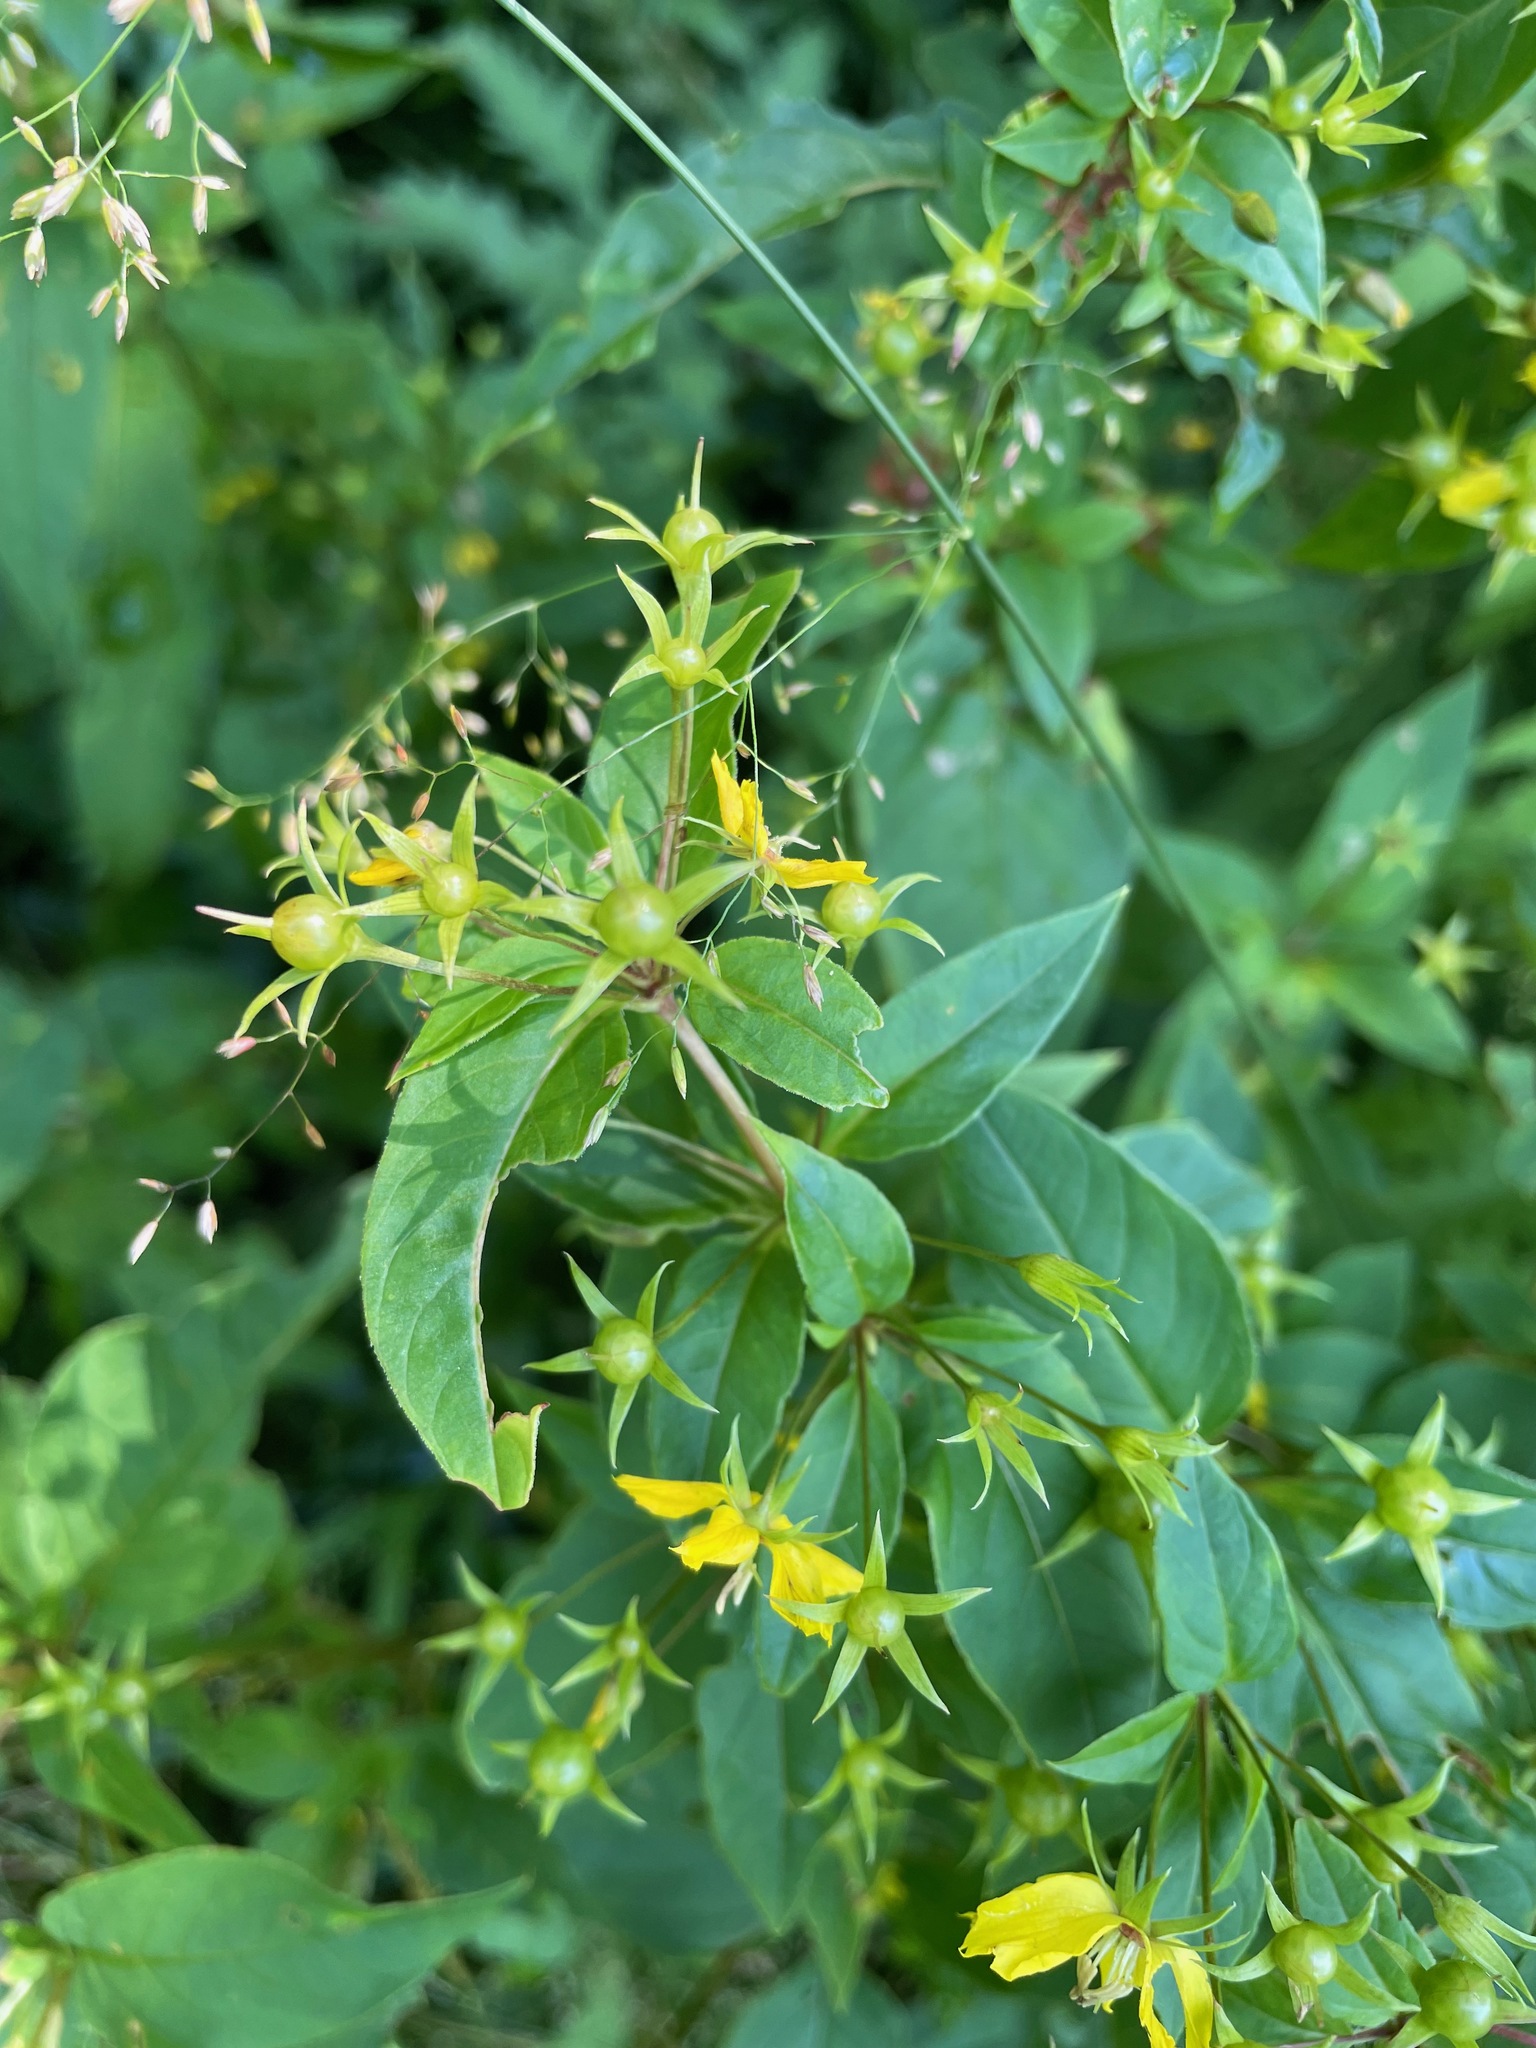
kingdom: Plantae
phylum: Tracheophyta
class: Magnoliopsida
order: Ericales
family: Primulaceae
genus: Lysimachia
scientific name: Lysimachia ciliata
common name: Fringed loosestrife
